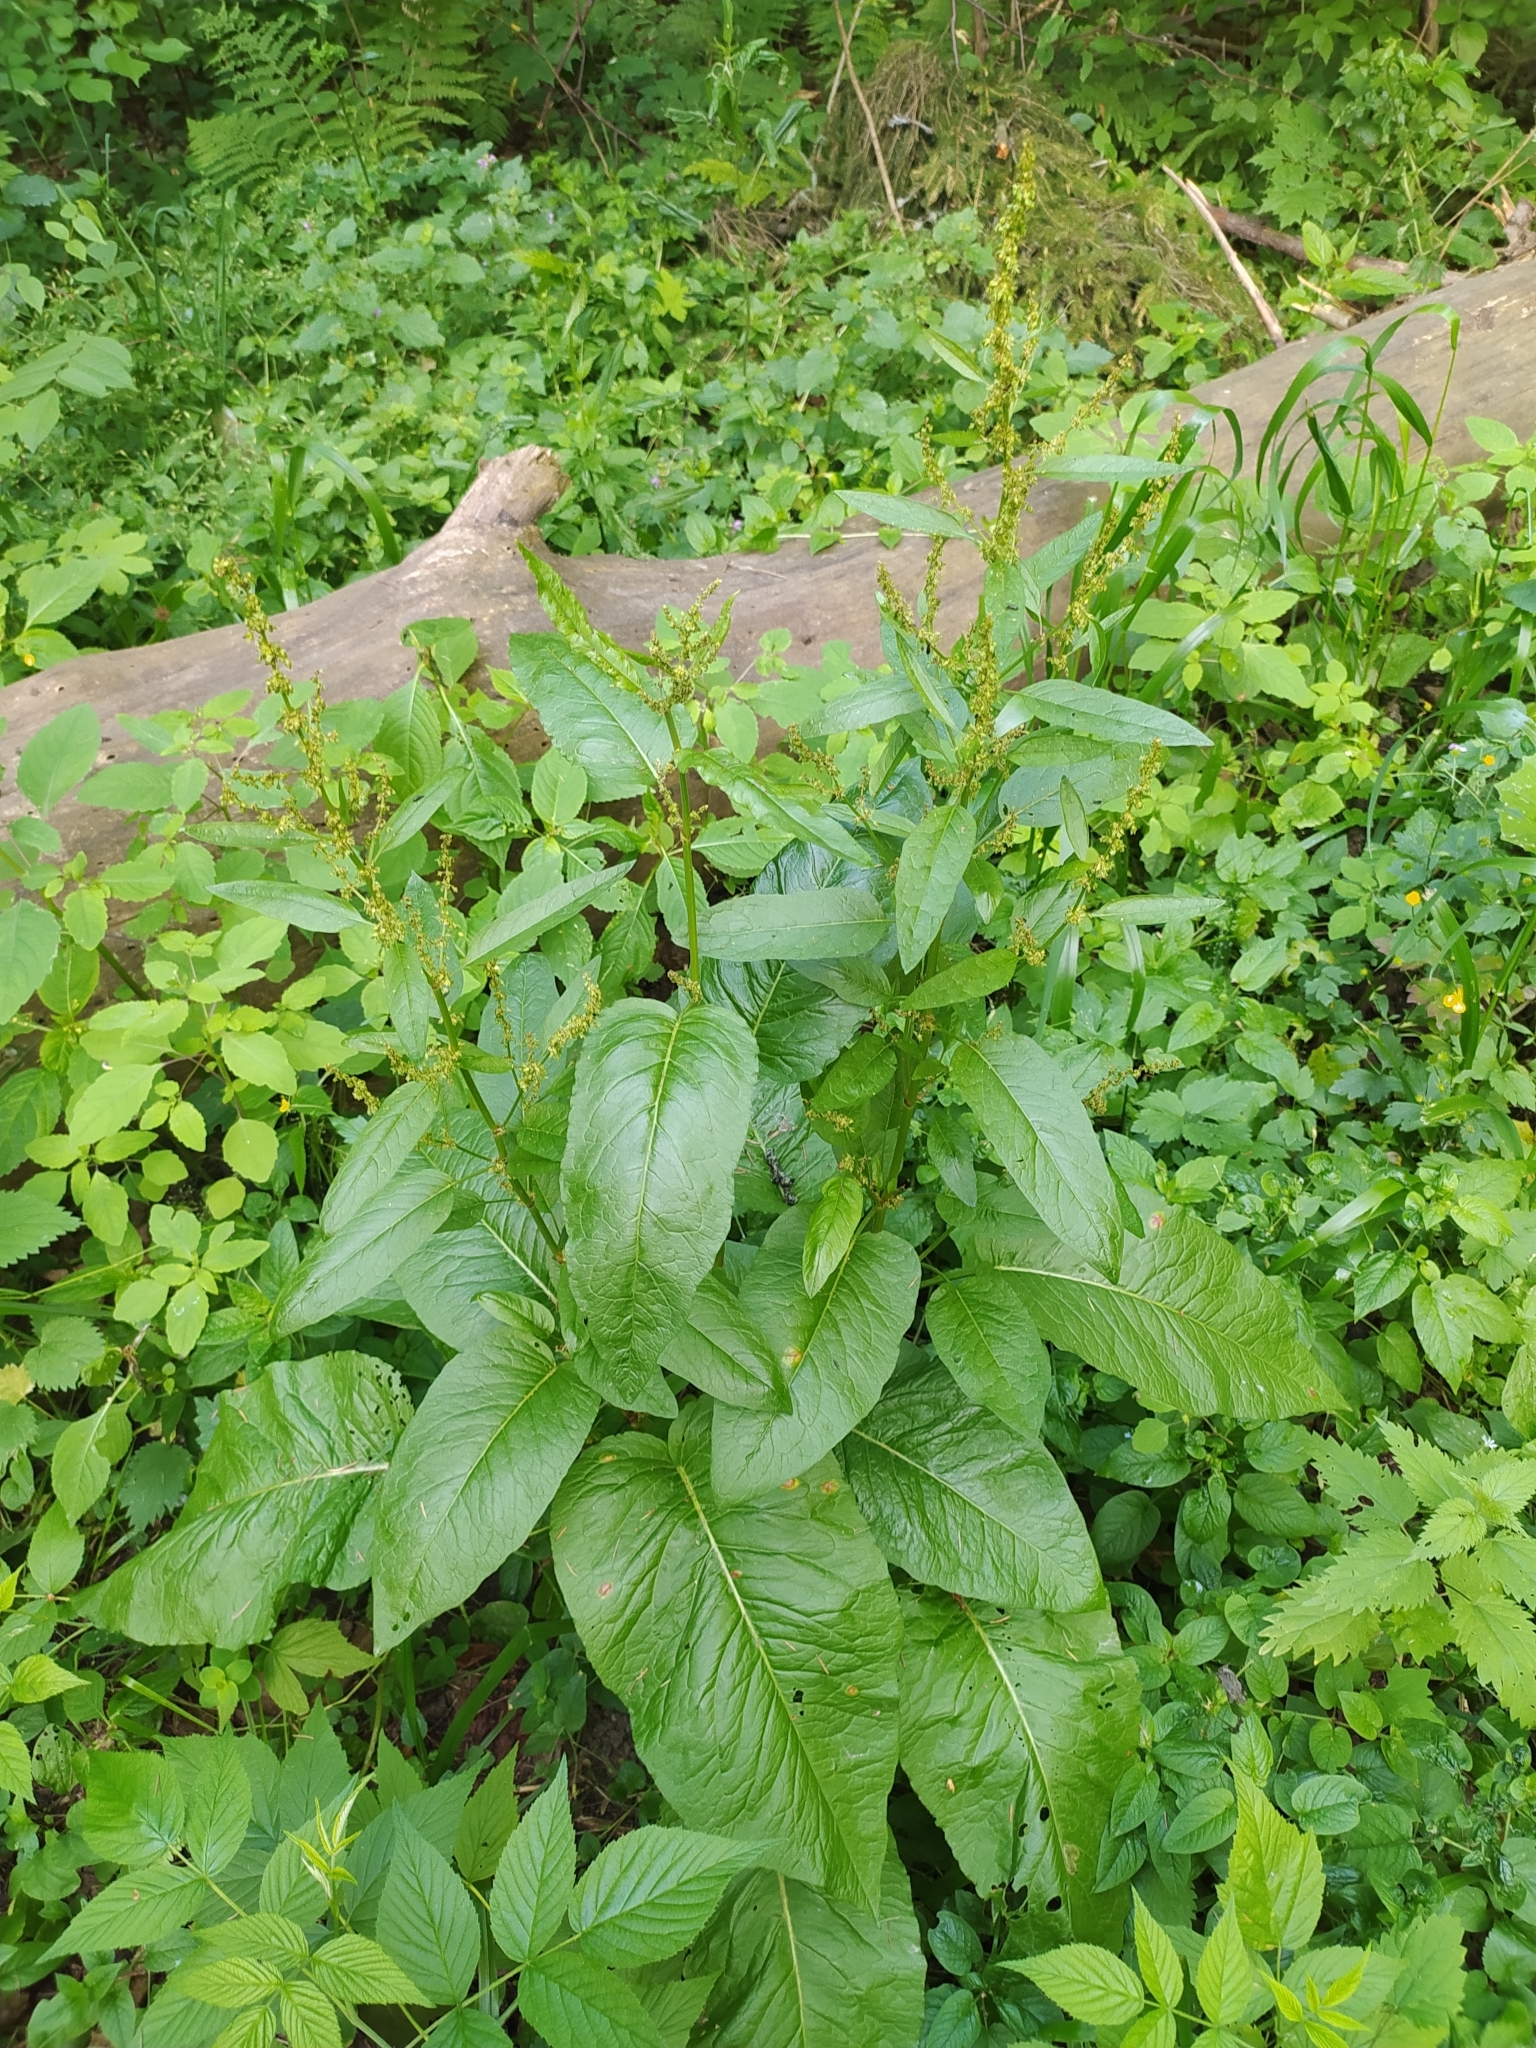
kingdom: Plantae
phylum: Tracheophyta
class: Magnoliopsida
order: Caryophyllales
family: Polygonaceae
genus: Rumex
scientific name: Rumex obtusifolius
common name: Bitter dock
